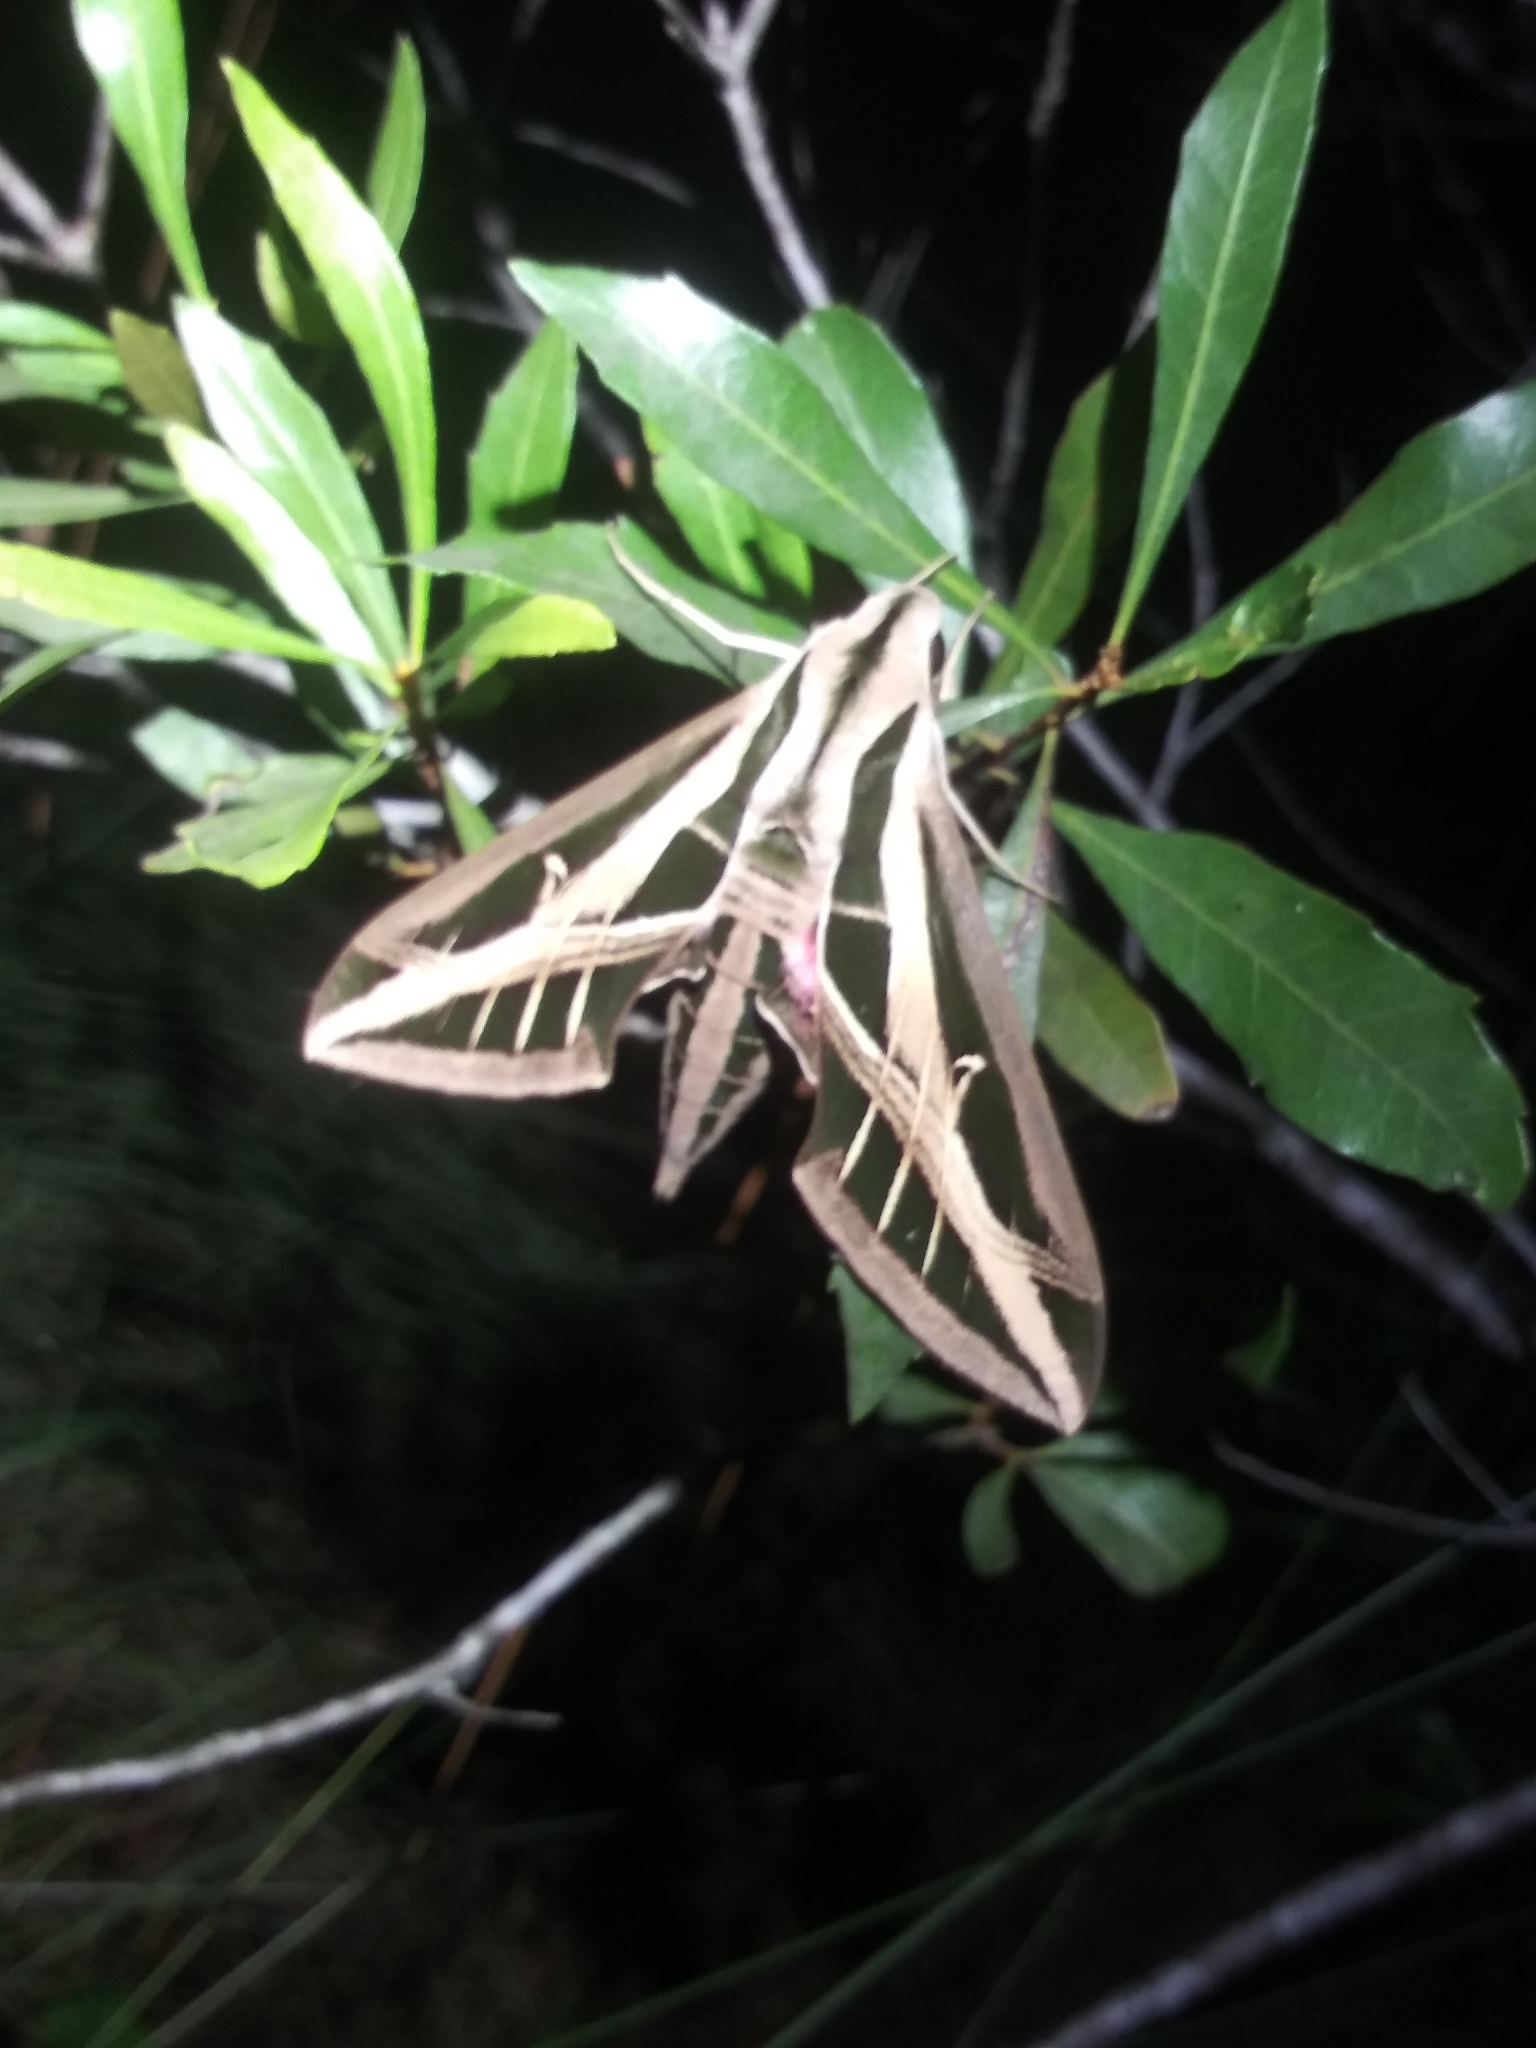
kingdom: Animalia
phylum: Arthropoda
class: Insecta
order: Lepidoptera
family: Sphingidae
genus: Eumorpha
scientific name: Eumorpha fasciatus
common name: Banded sphinx
